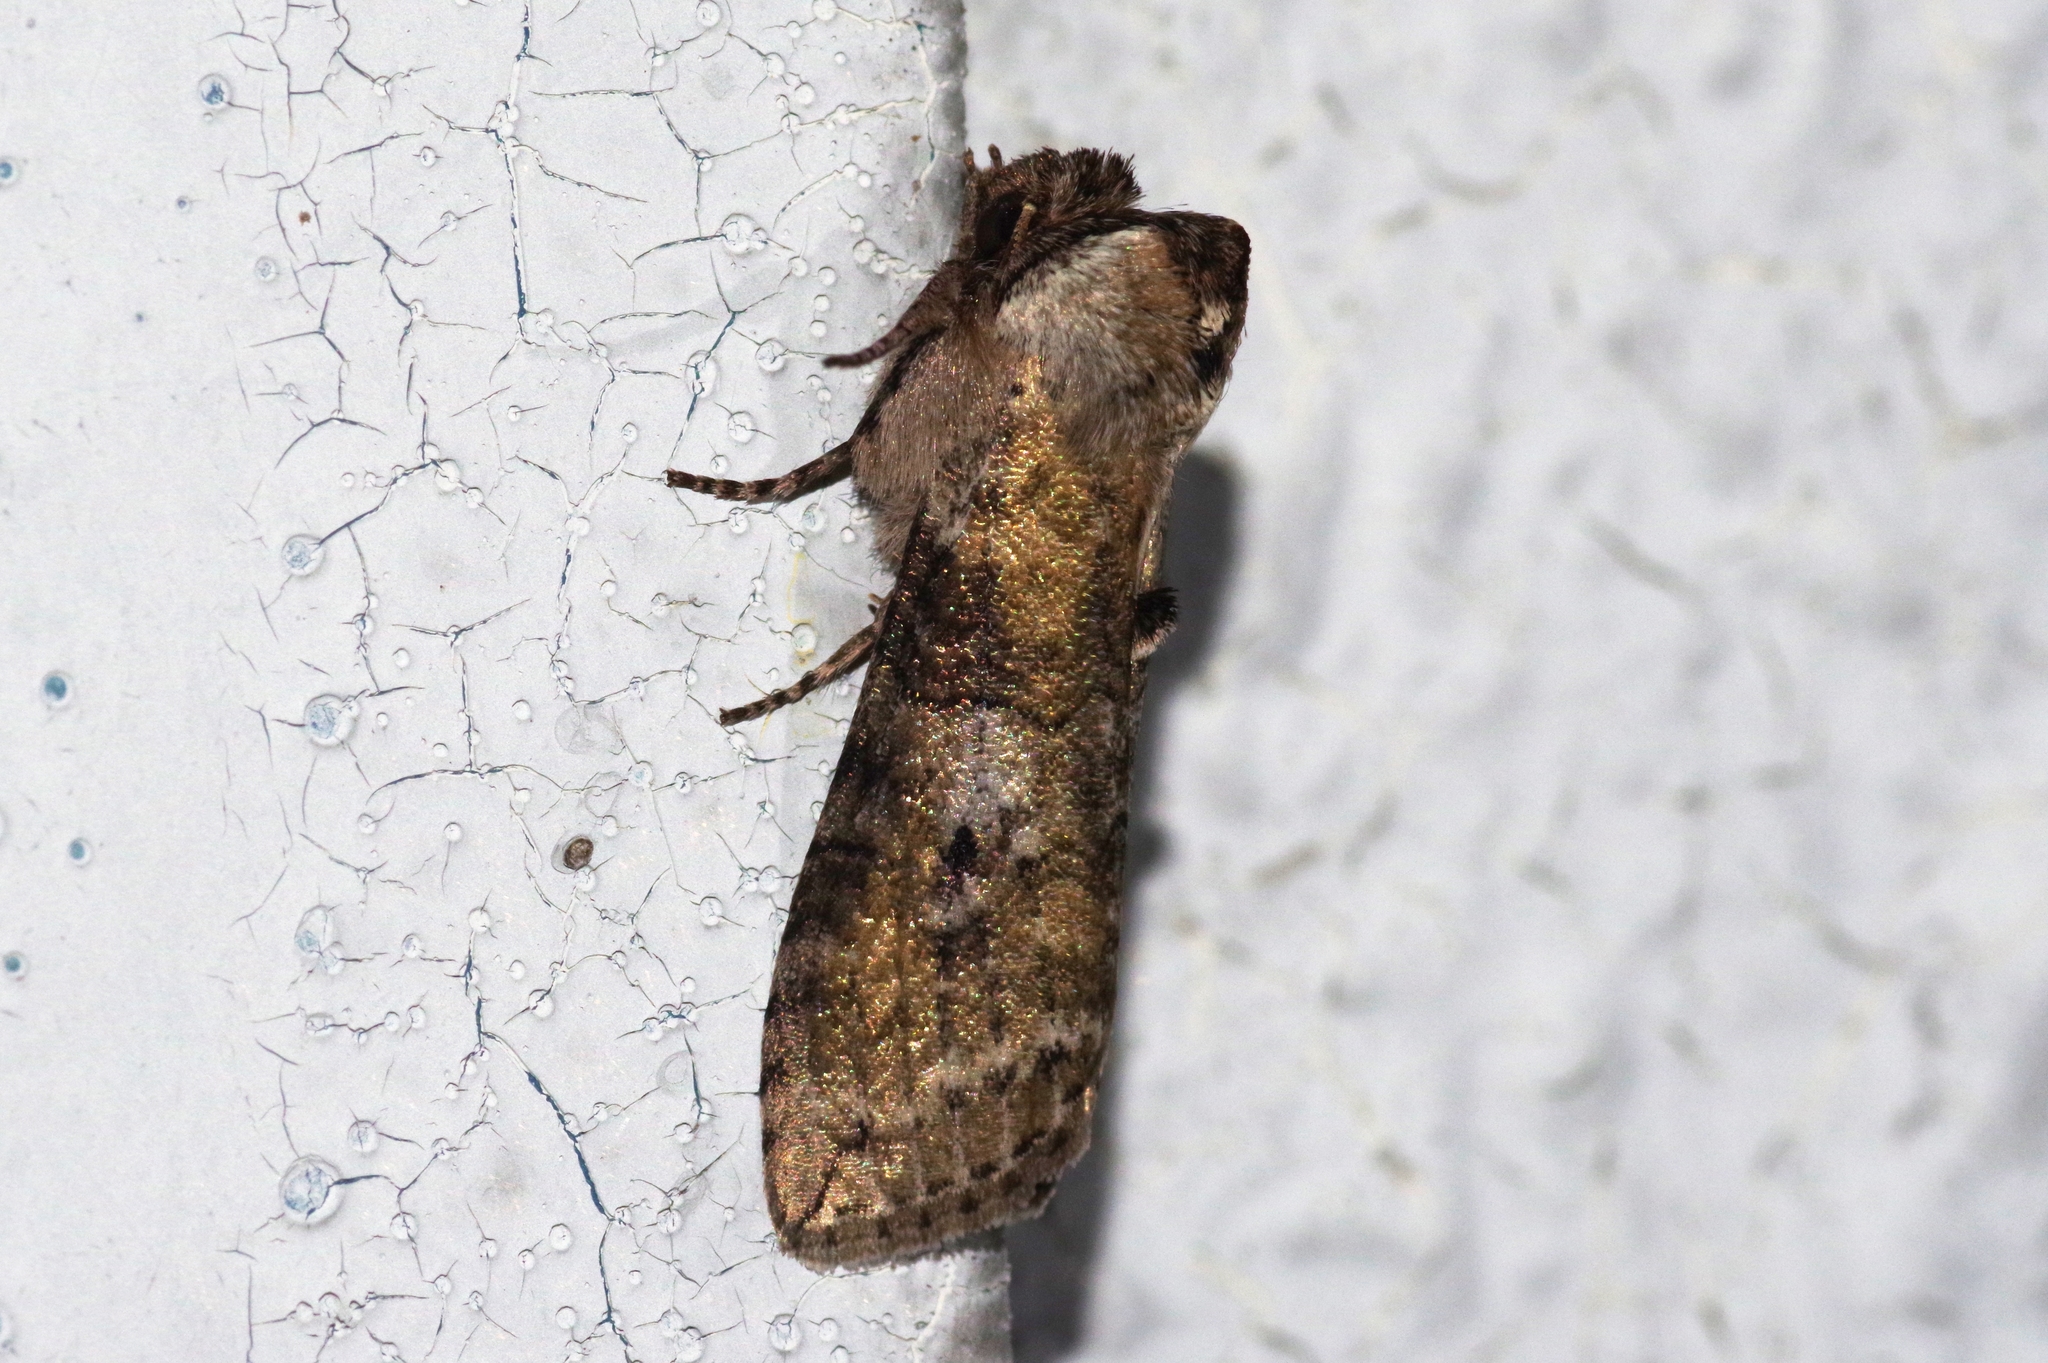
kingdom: Animalia
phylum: Arthropoda
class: Insecta
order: Lepidoptera
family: Drepanidae
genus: Neoploca
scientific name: Neoploca arctipennis
